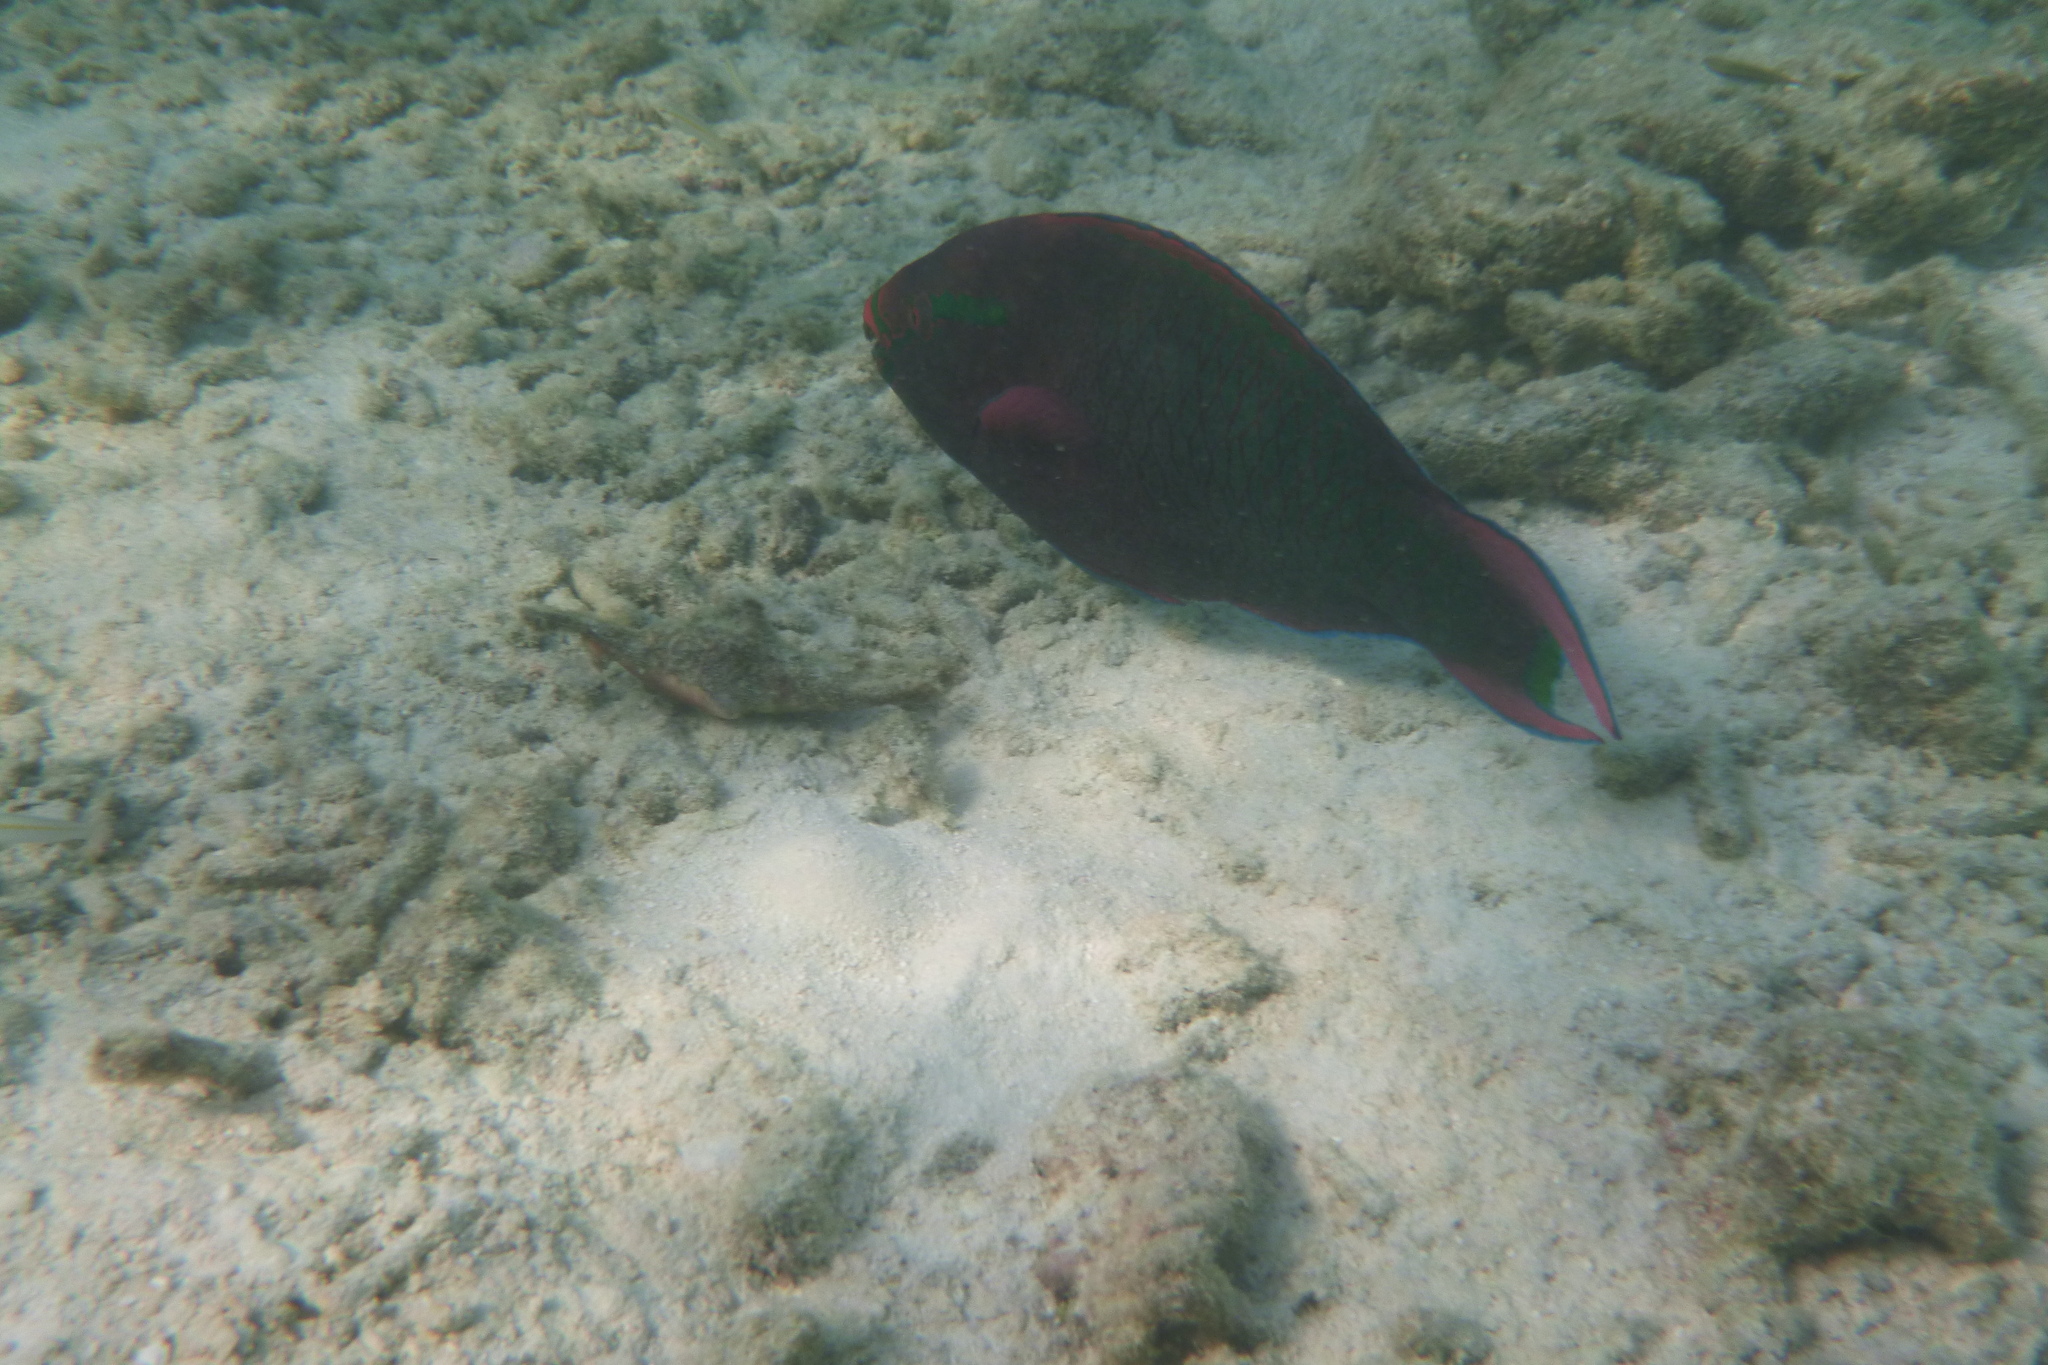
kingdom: Animalia
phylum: Chordata
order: Perciformes
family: Scaridae
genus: Scarus
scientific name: Scarus niger
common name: Dusky parrotfish
